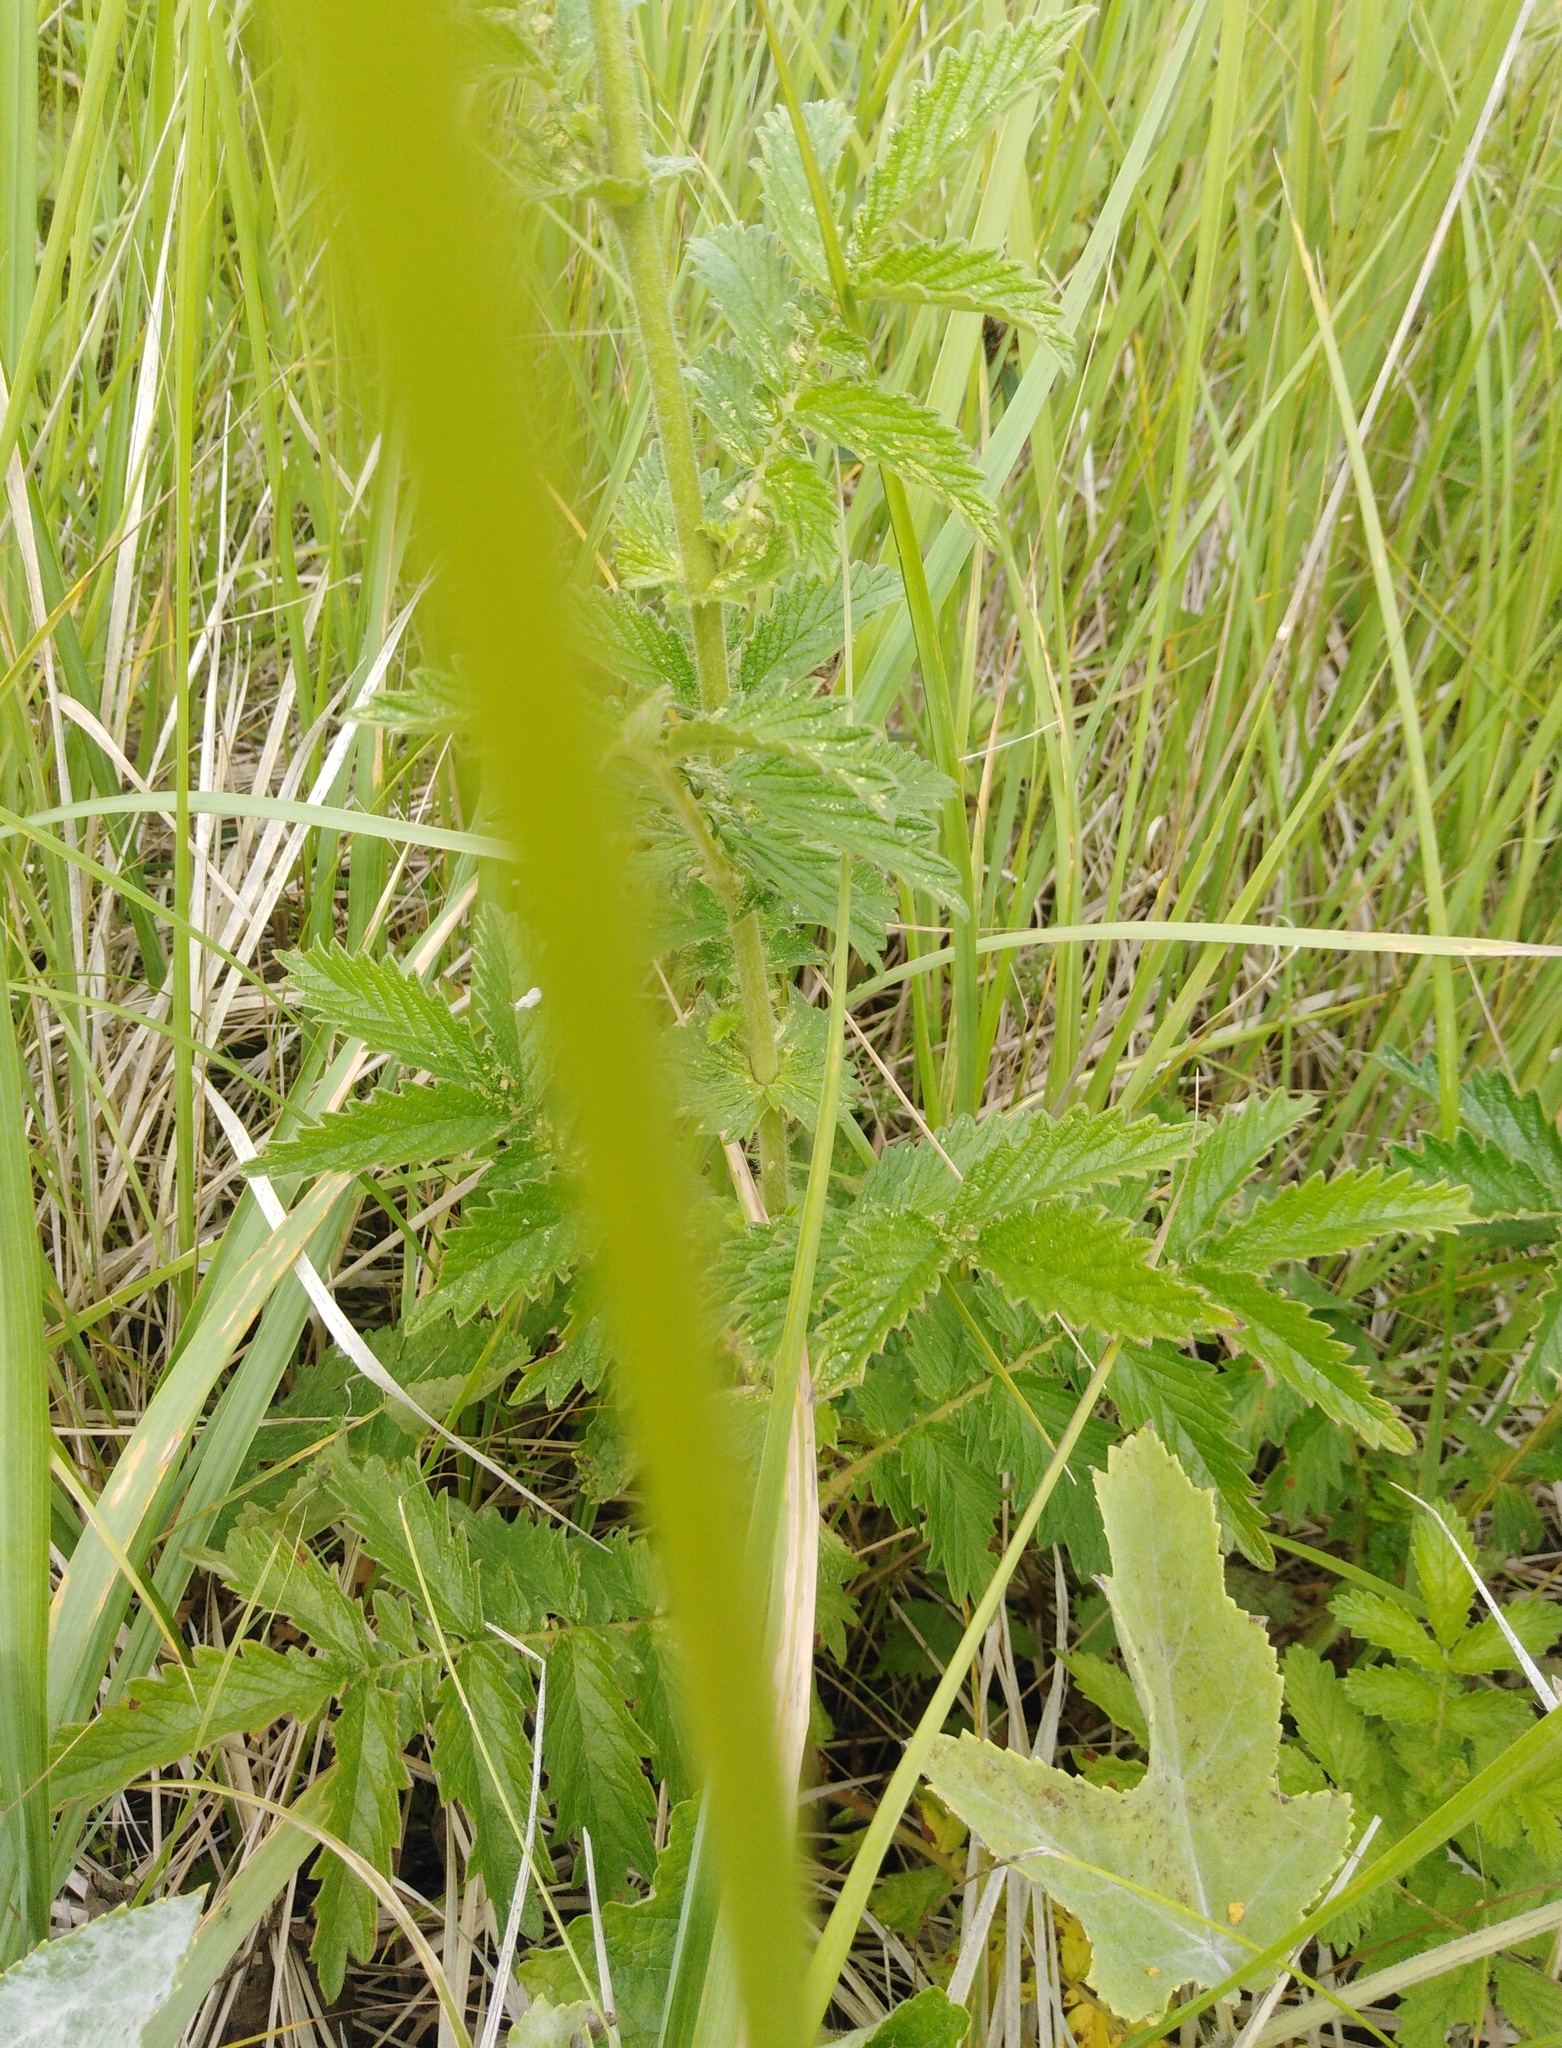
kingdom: Plantae
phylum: Tracheophyta
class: Magnoliopsida
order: Rosales
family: Rosaceae
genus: Agrimonia
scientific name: Agrimonia eupatoria
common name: Agrimony
